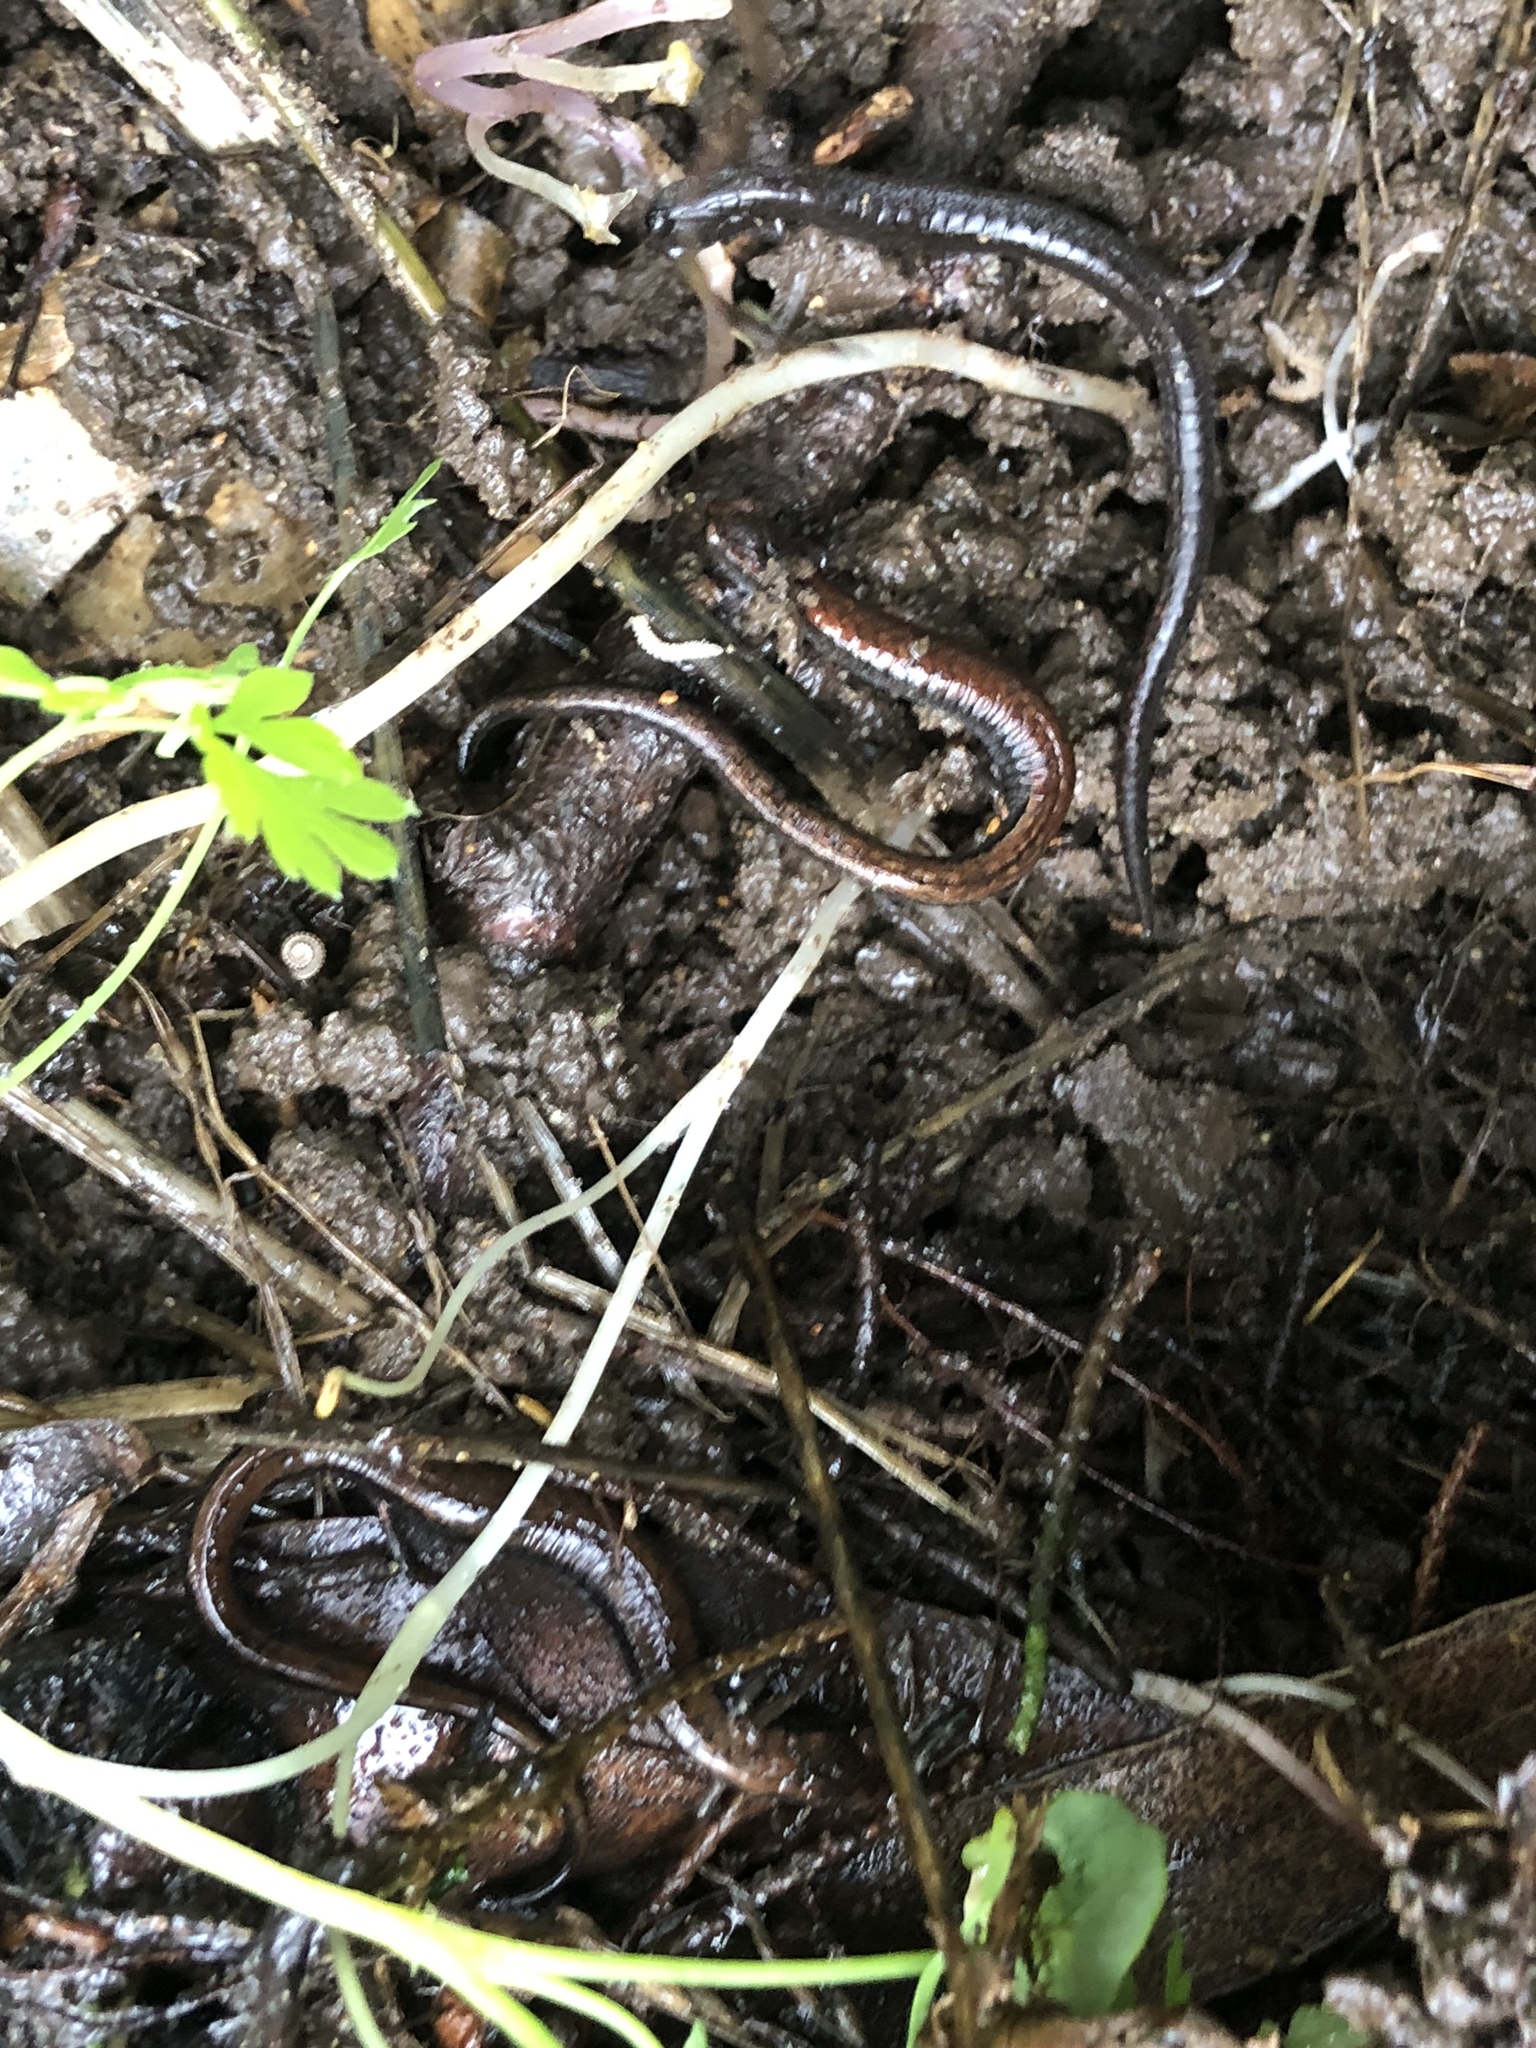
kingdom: Animalia
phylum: Chordata
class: Amphibia
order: Caudata
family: Plethodontidae
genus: Batrachoseps
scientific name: Batrachoseps attenuatus
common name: California slender salamander
